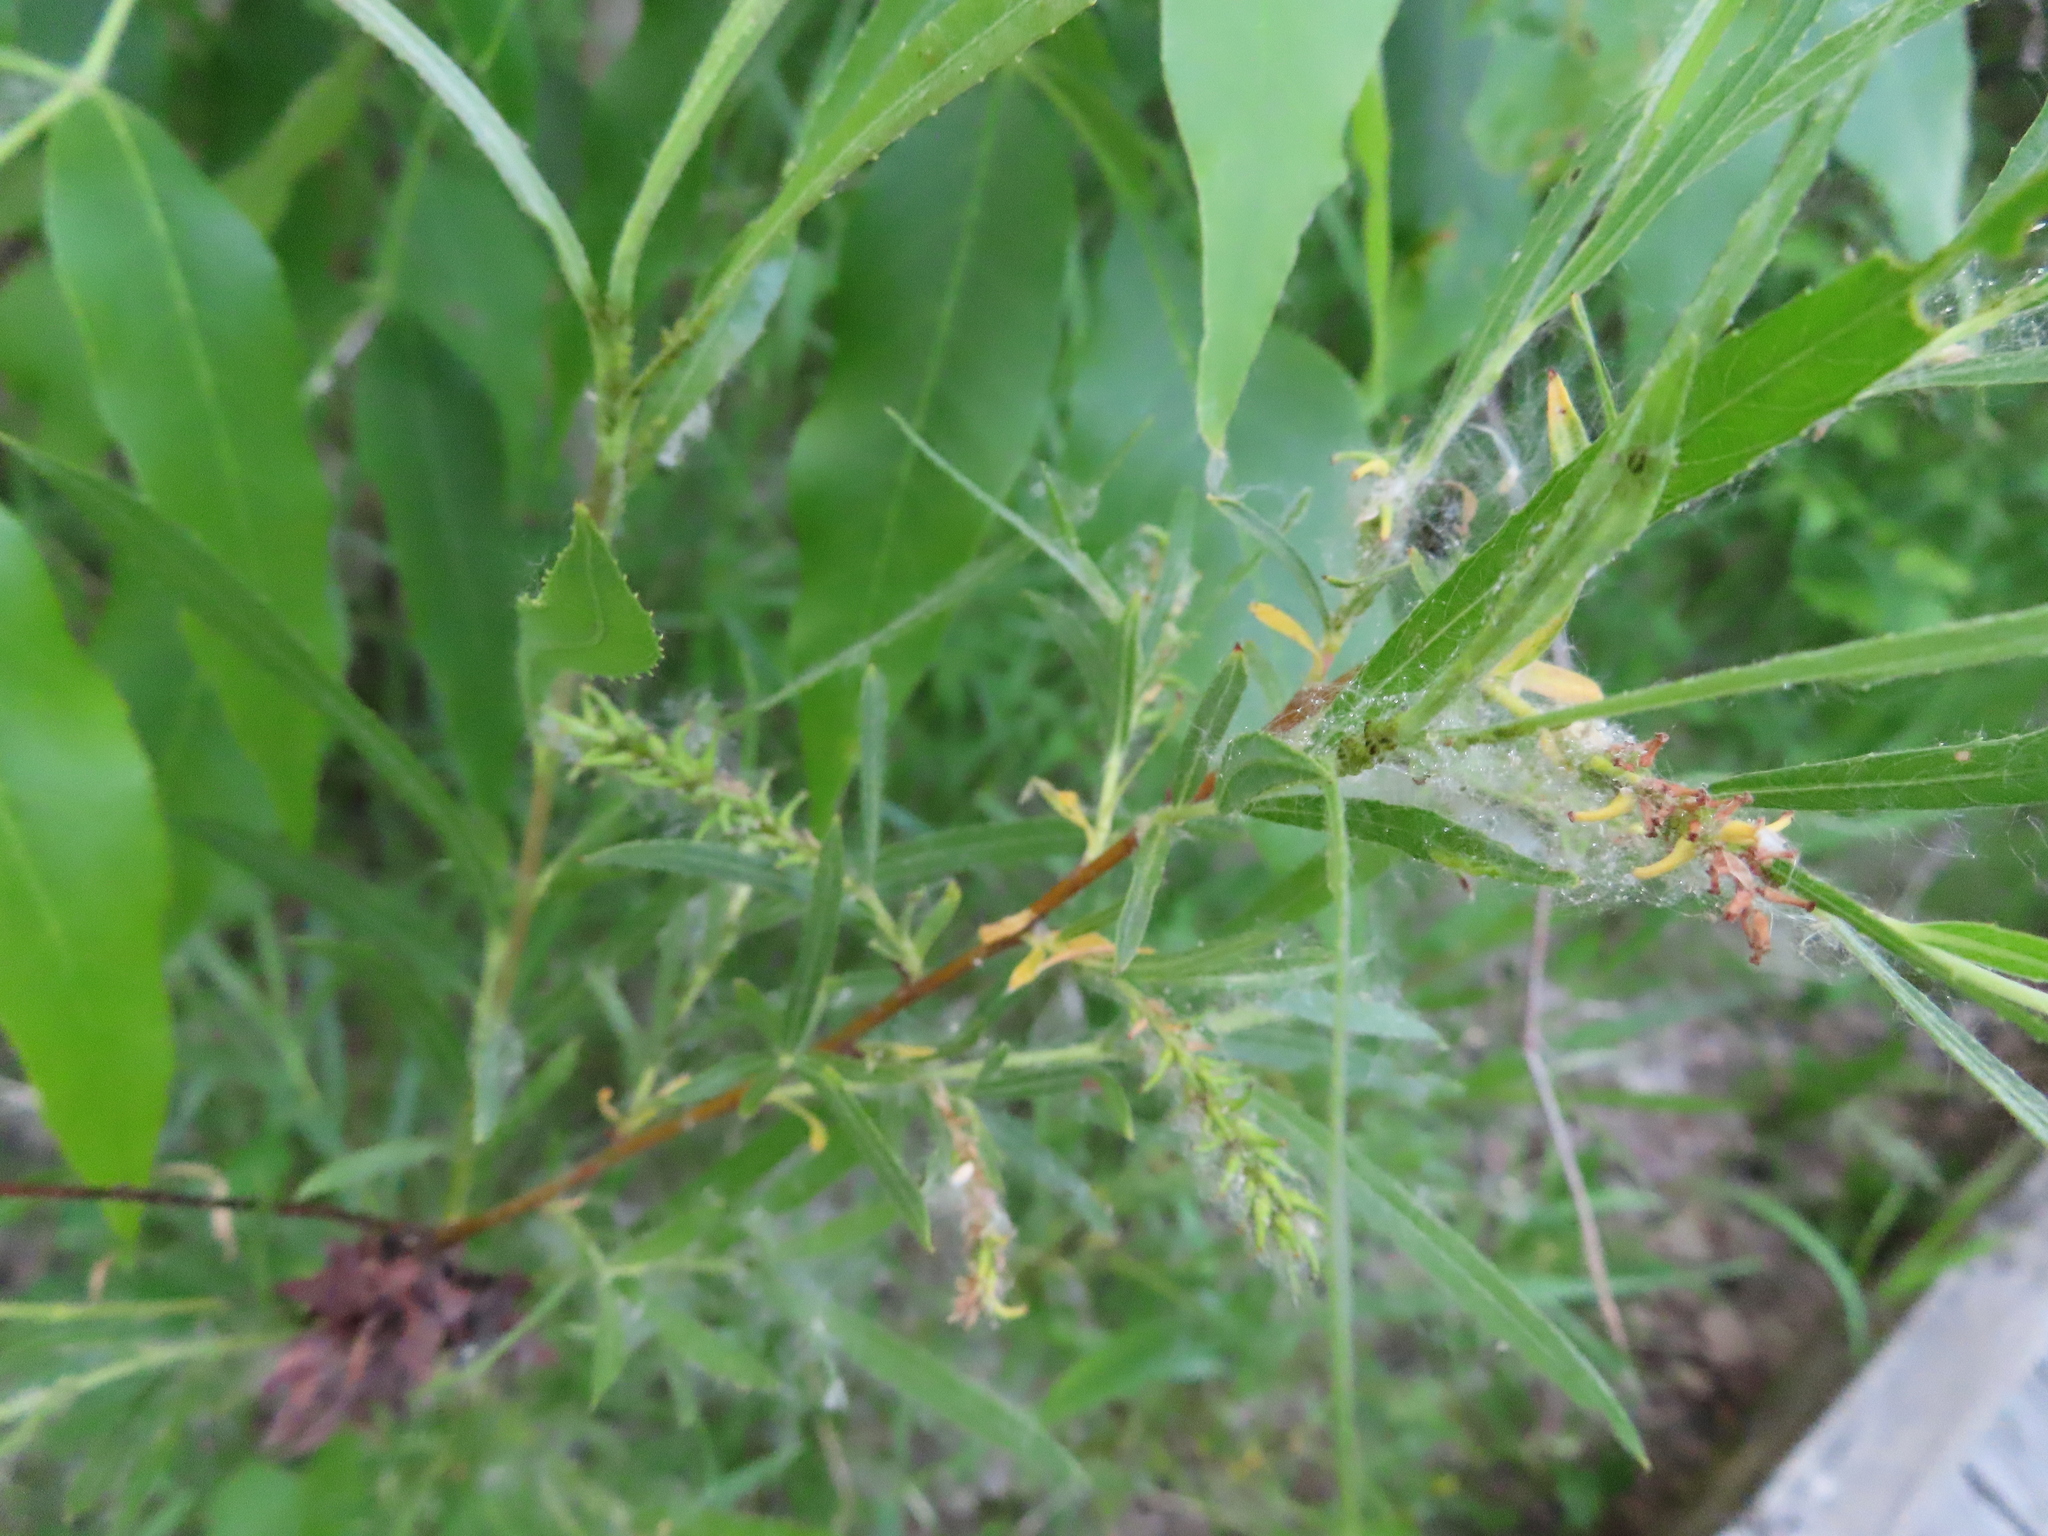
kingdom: Plantae
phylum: Tracheophyta
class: Magnoliopsida
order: Malpighiales
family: Salicaceae
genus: Salix
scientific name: Salix interior
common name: Sandbar willow
